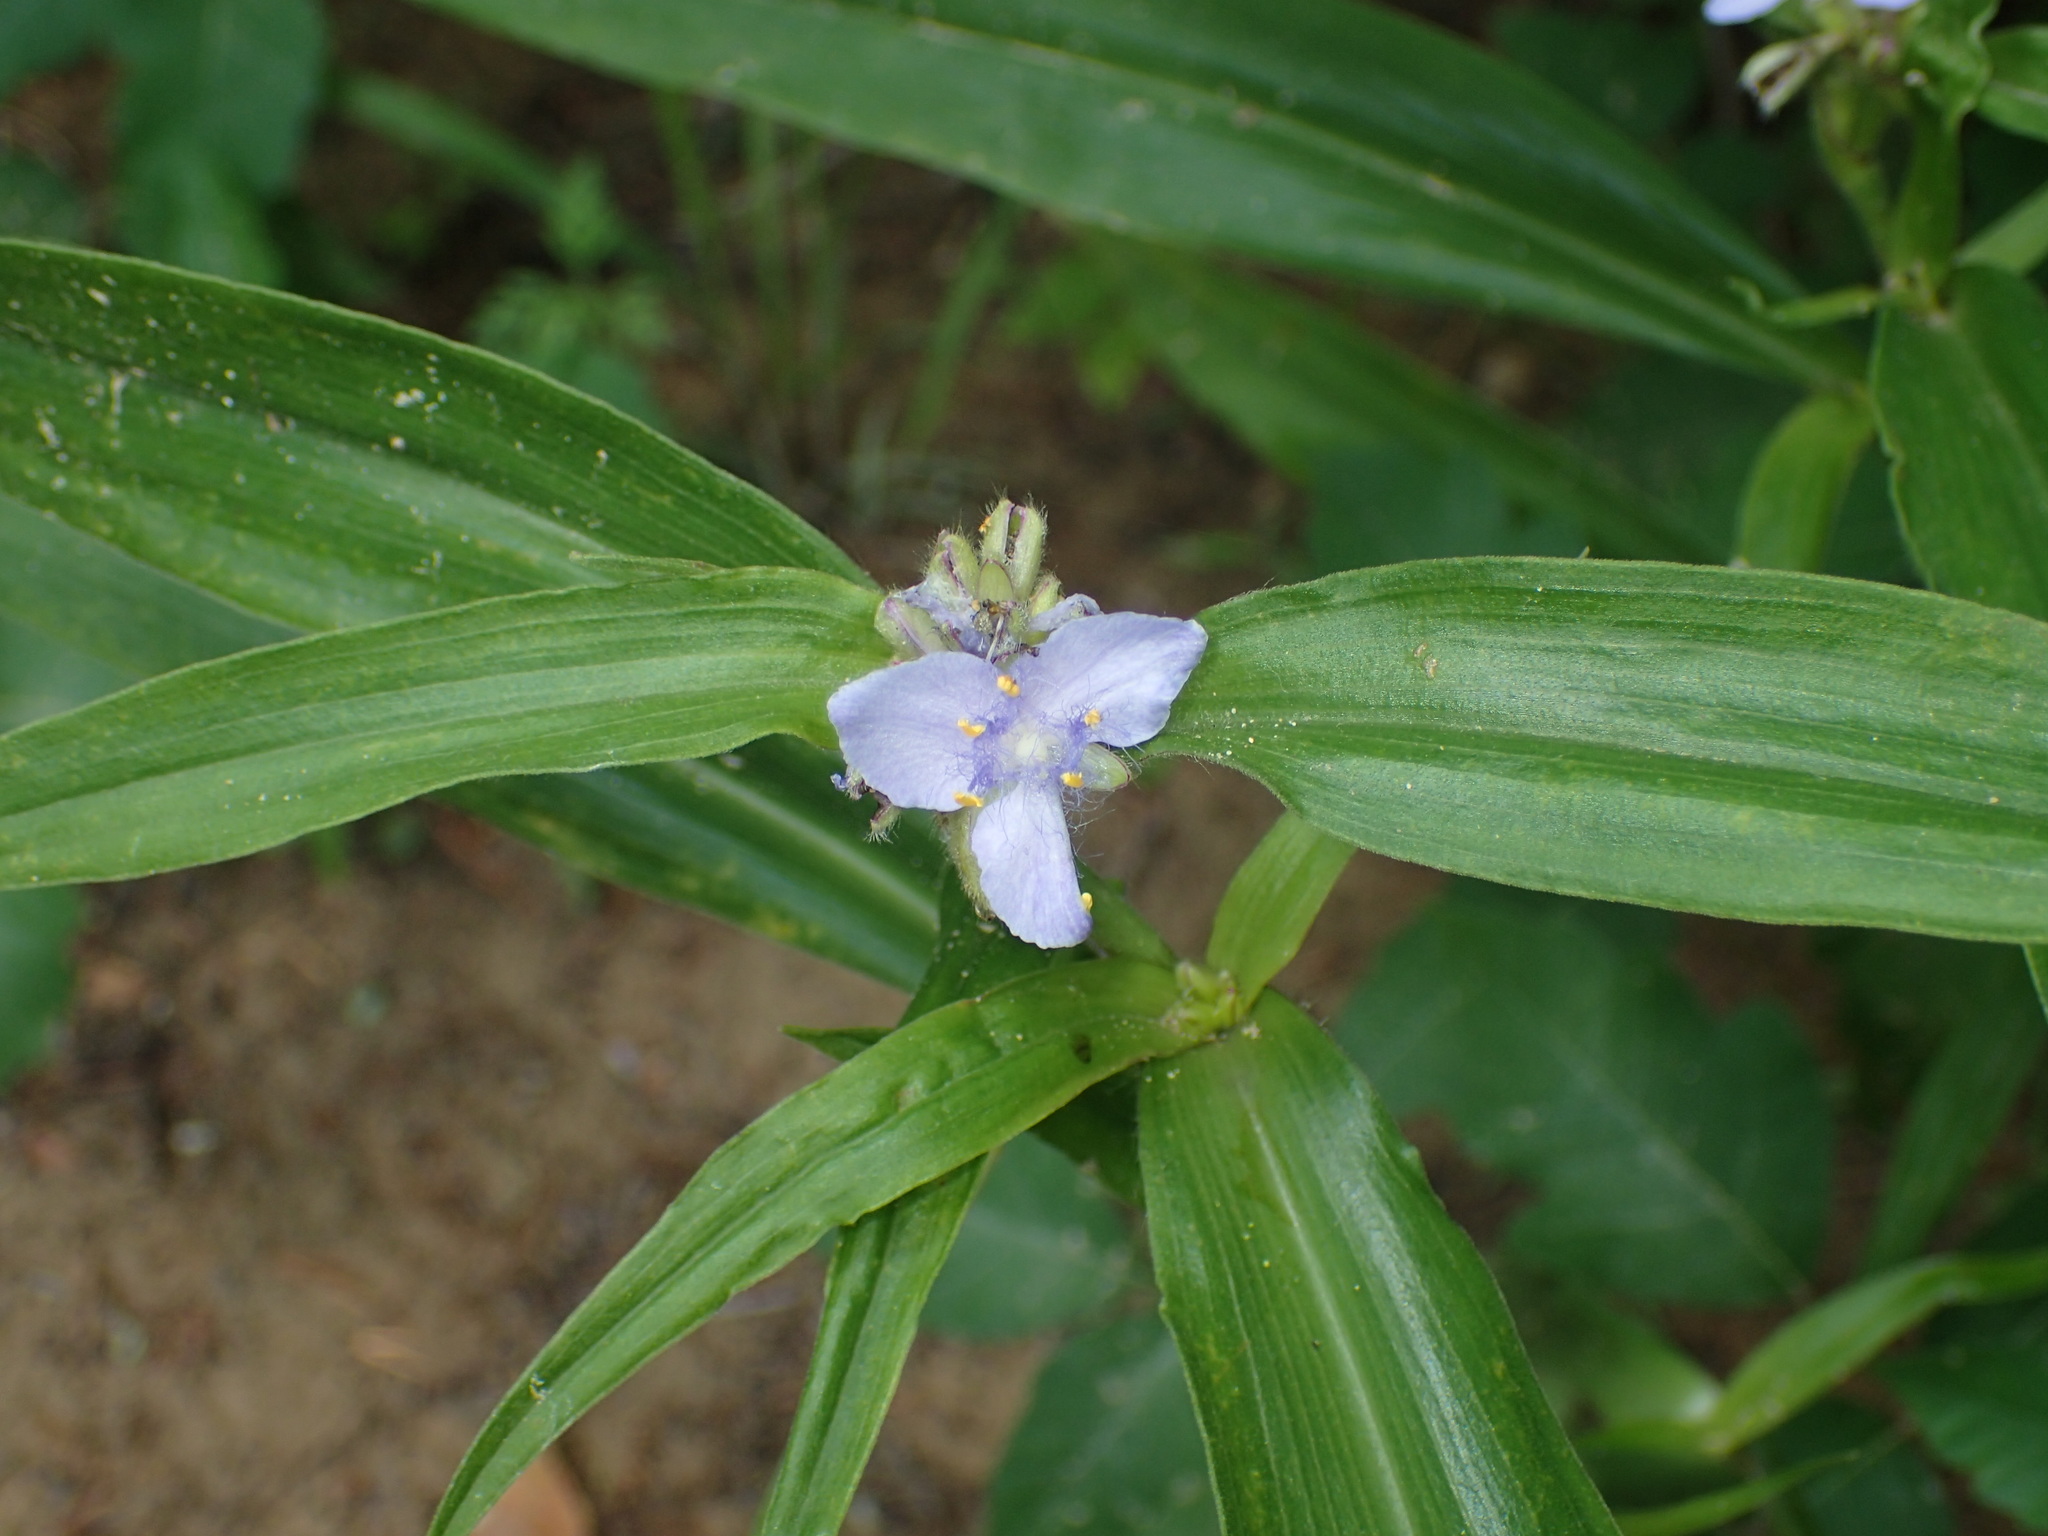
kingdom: Plantae
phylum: Tracheophyta
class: Liliopsida
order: Commelinales
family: Commelinaceae
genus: Tradescantia
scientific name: Tradescantia subaspera
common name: Wide-leaf spiderwort
